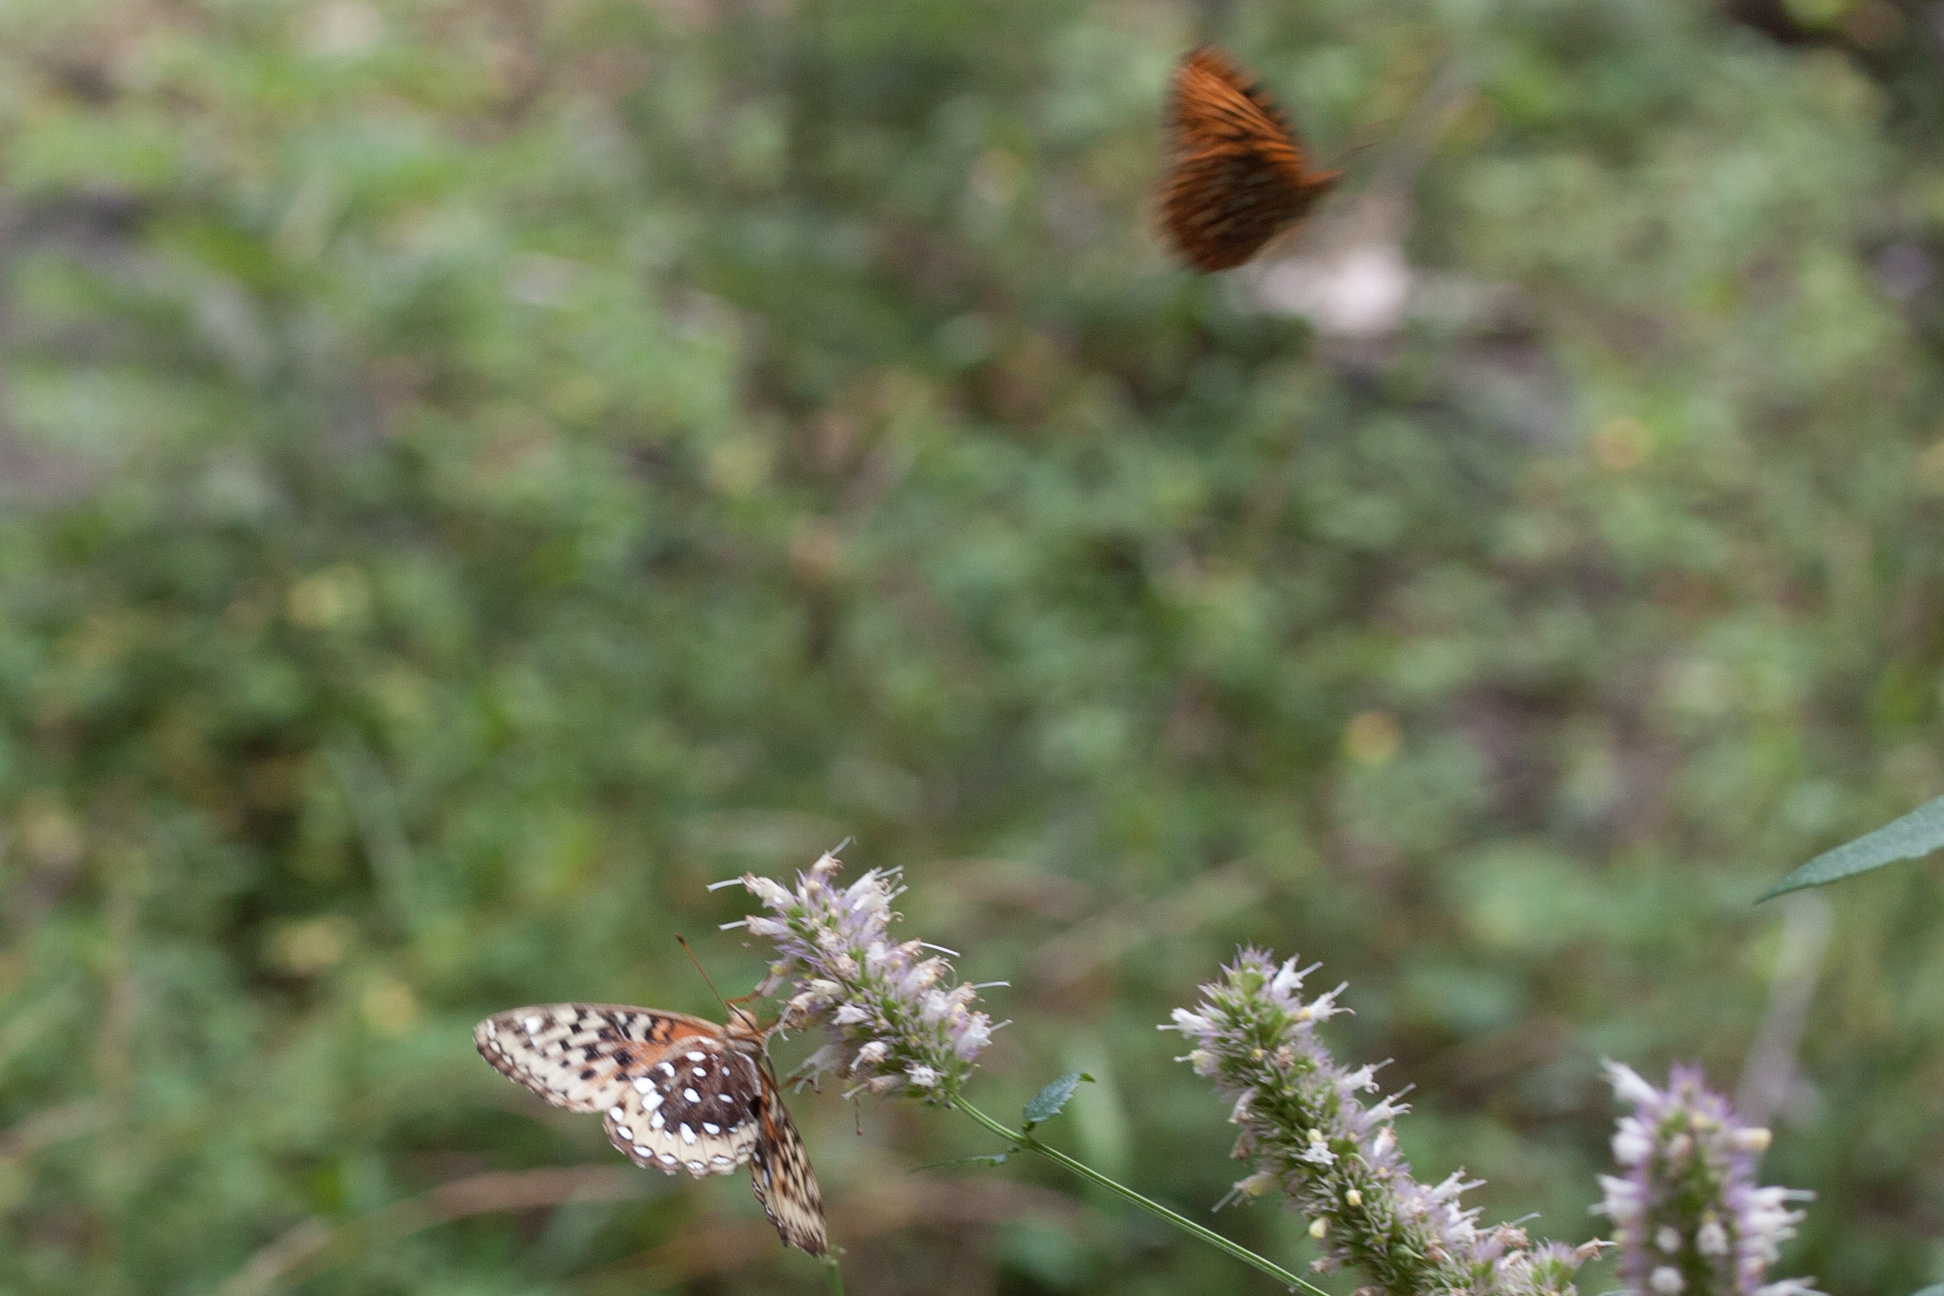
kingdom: Animalia
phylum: Arthropoda
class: Insecta
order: Lepidoptera
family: Nymphalidae
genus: Speyeria
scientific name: Speyeria cybele
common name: Great spangled fritillary
